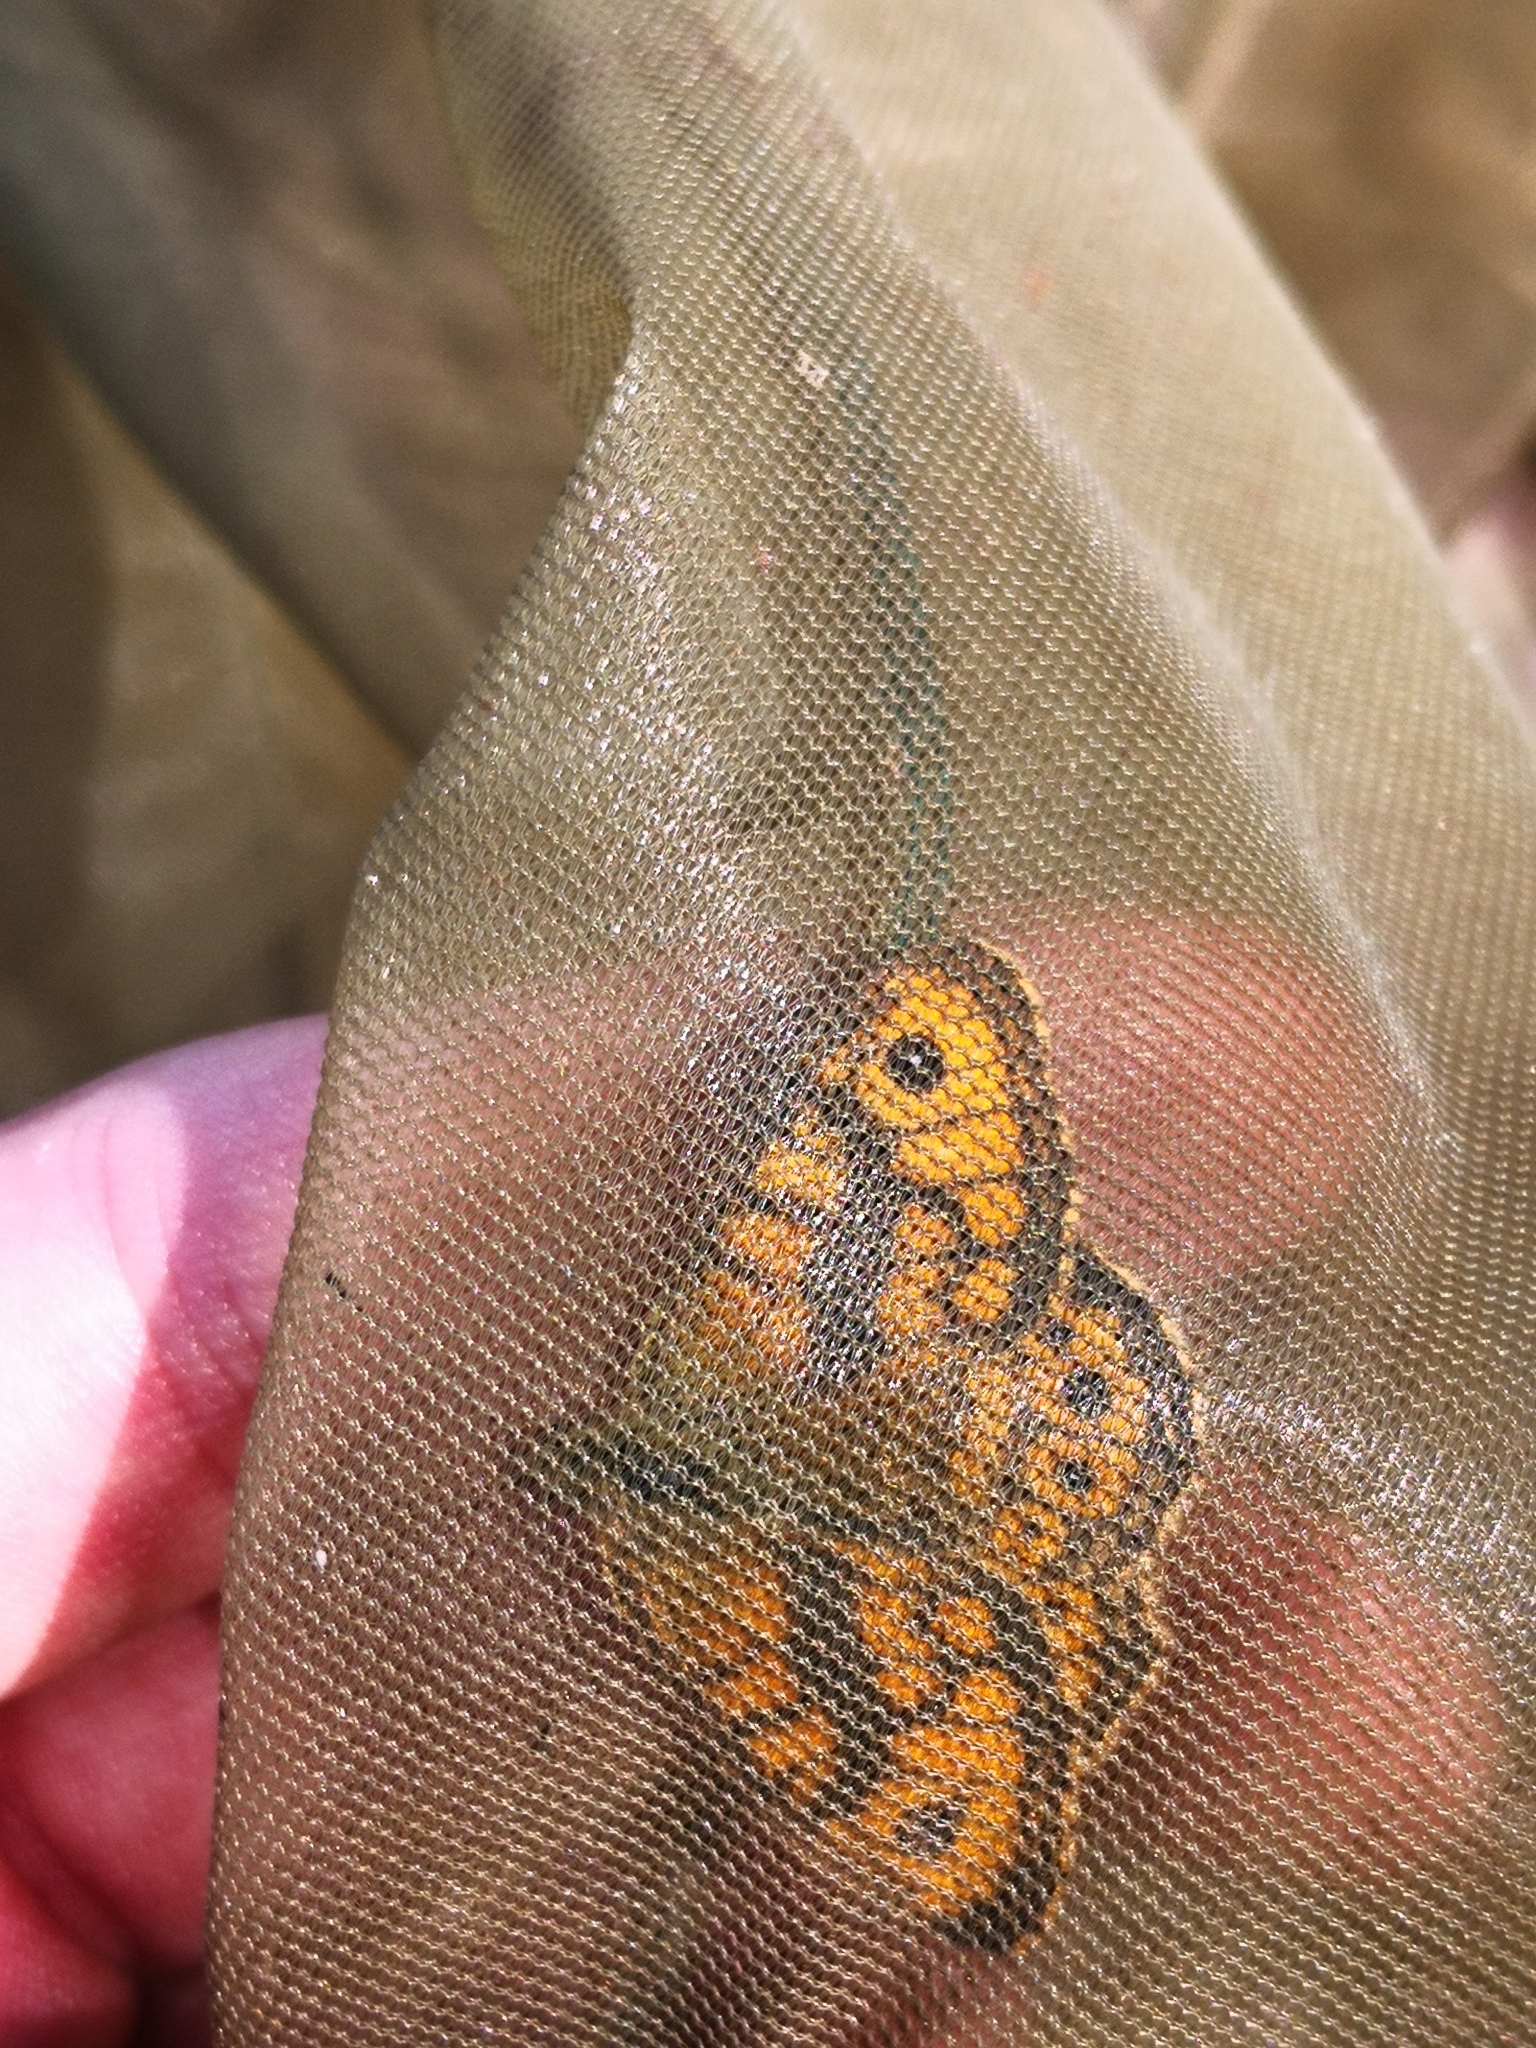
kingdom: Animalia
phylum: Arthropoda
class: Insecta
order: Lepidoptera
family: Nymphalidae
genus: Pararge
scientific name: Pararge Lasiommata megera
